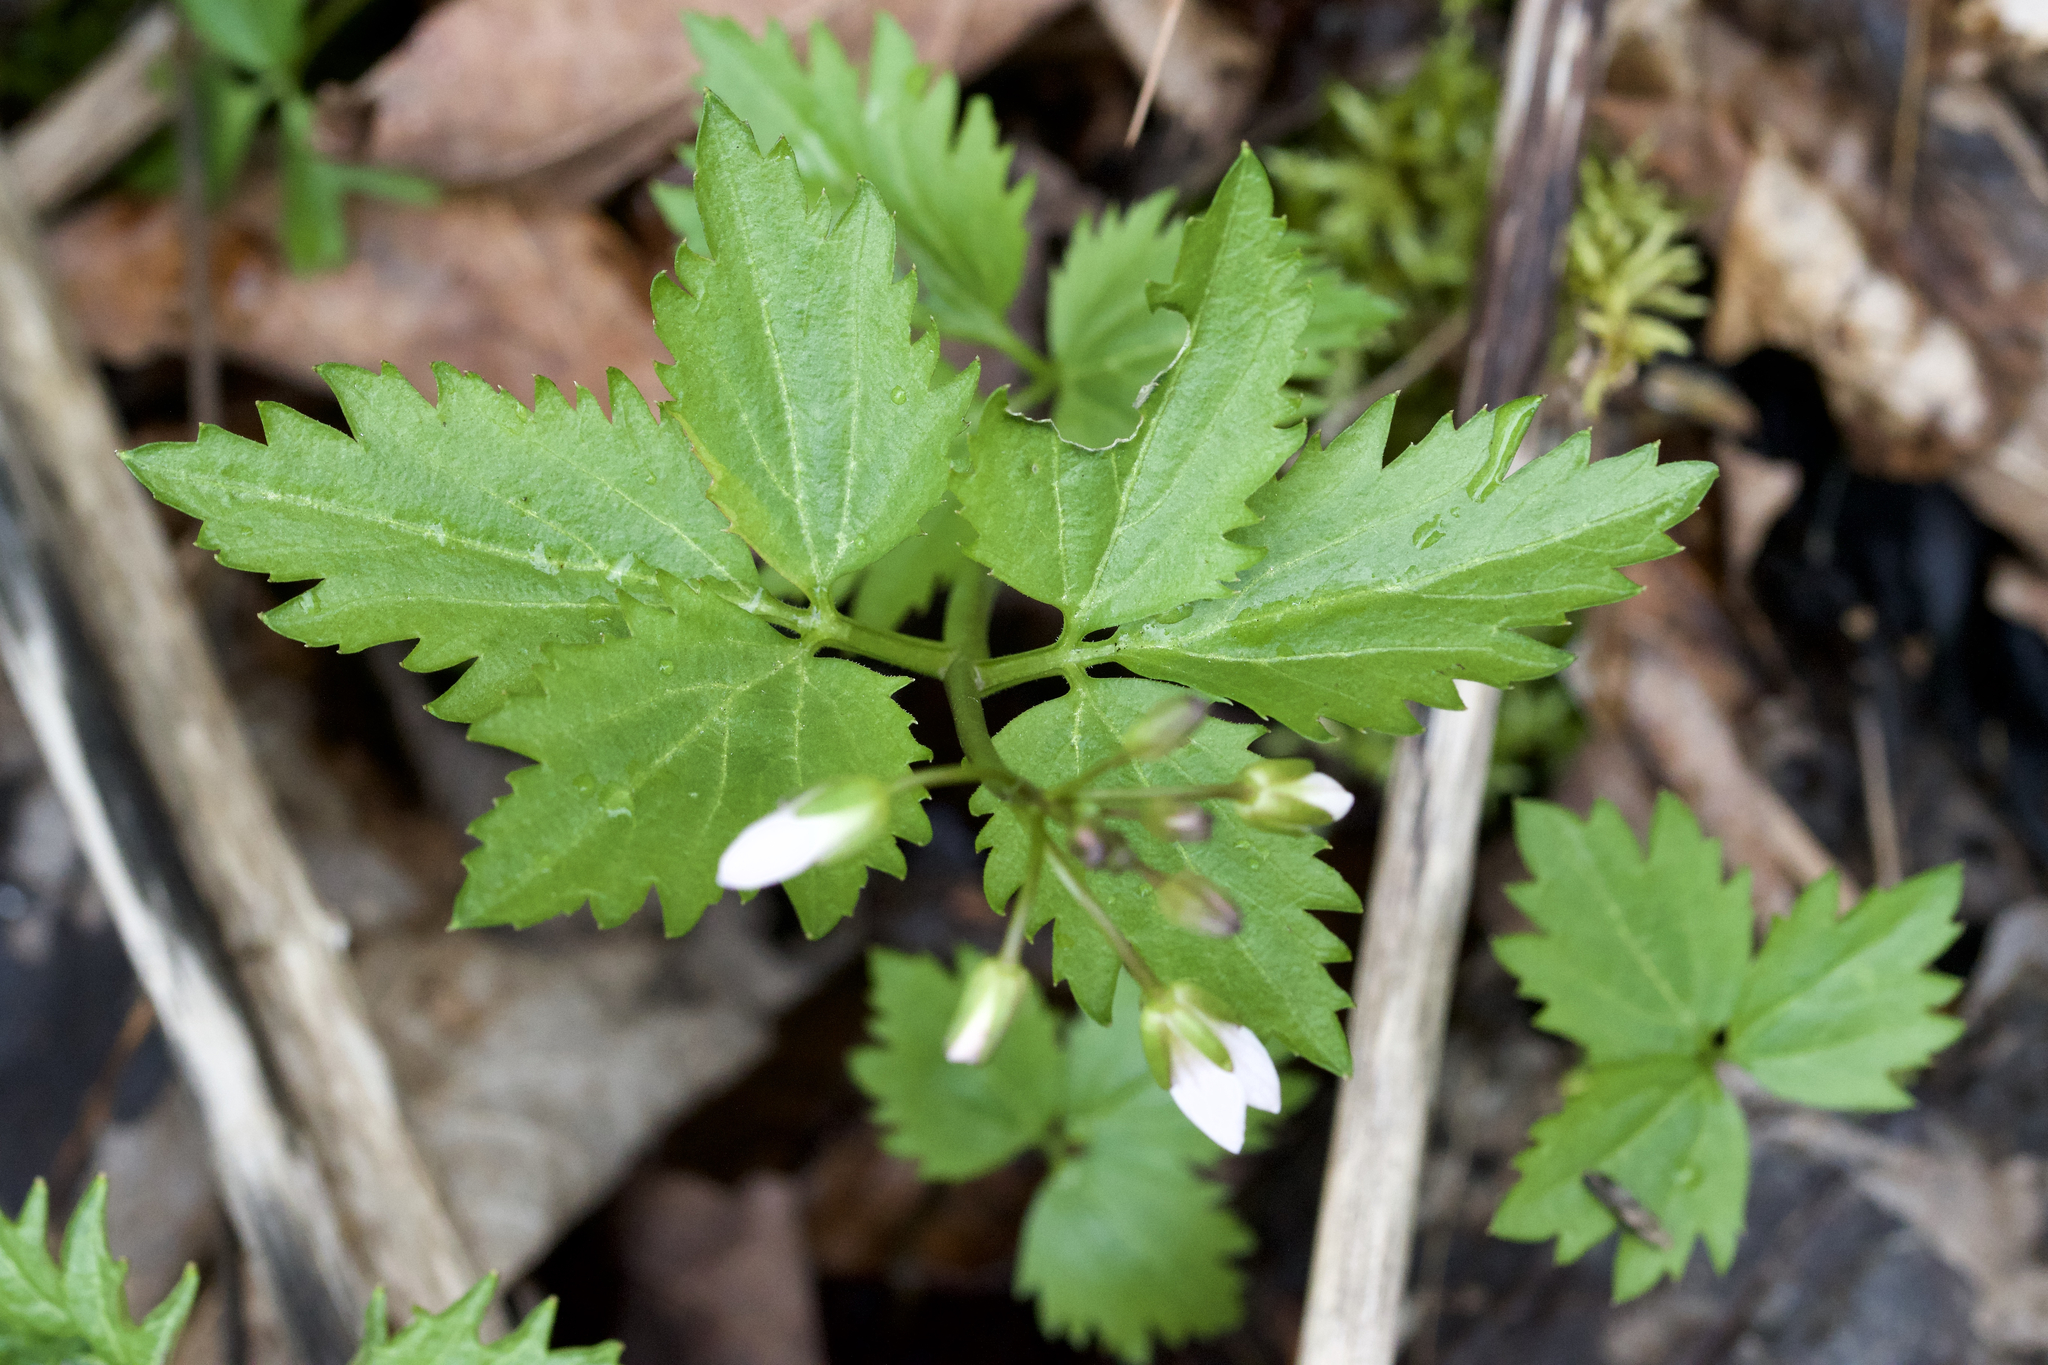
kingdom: Plantae
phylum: Tracheophyta
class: Magnoliopsida
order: Brassicales
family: Brassicaceae
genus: Cardamine
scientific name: Cardamine diphylla
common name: Broad-leaved toothwort
